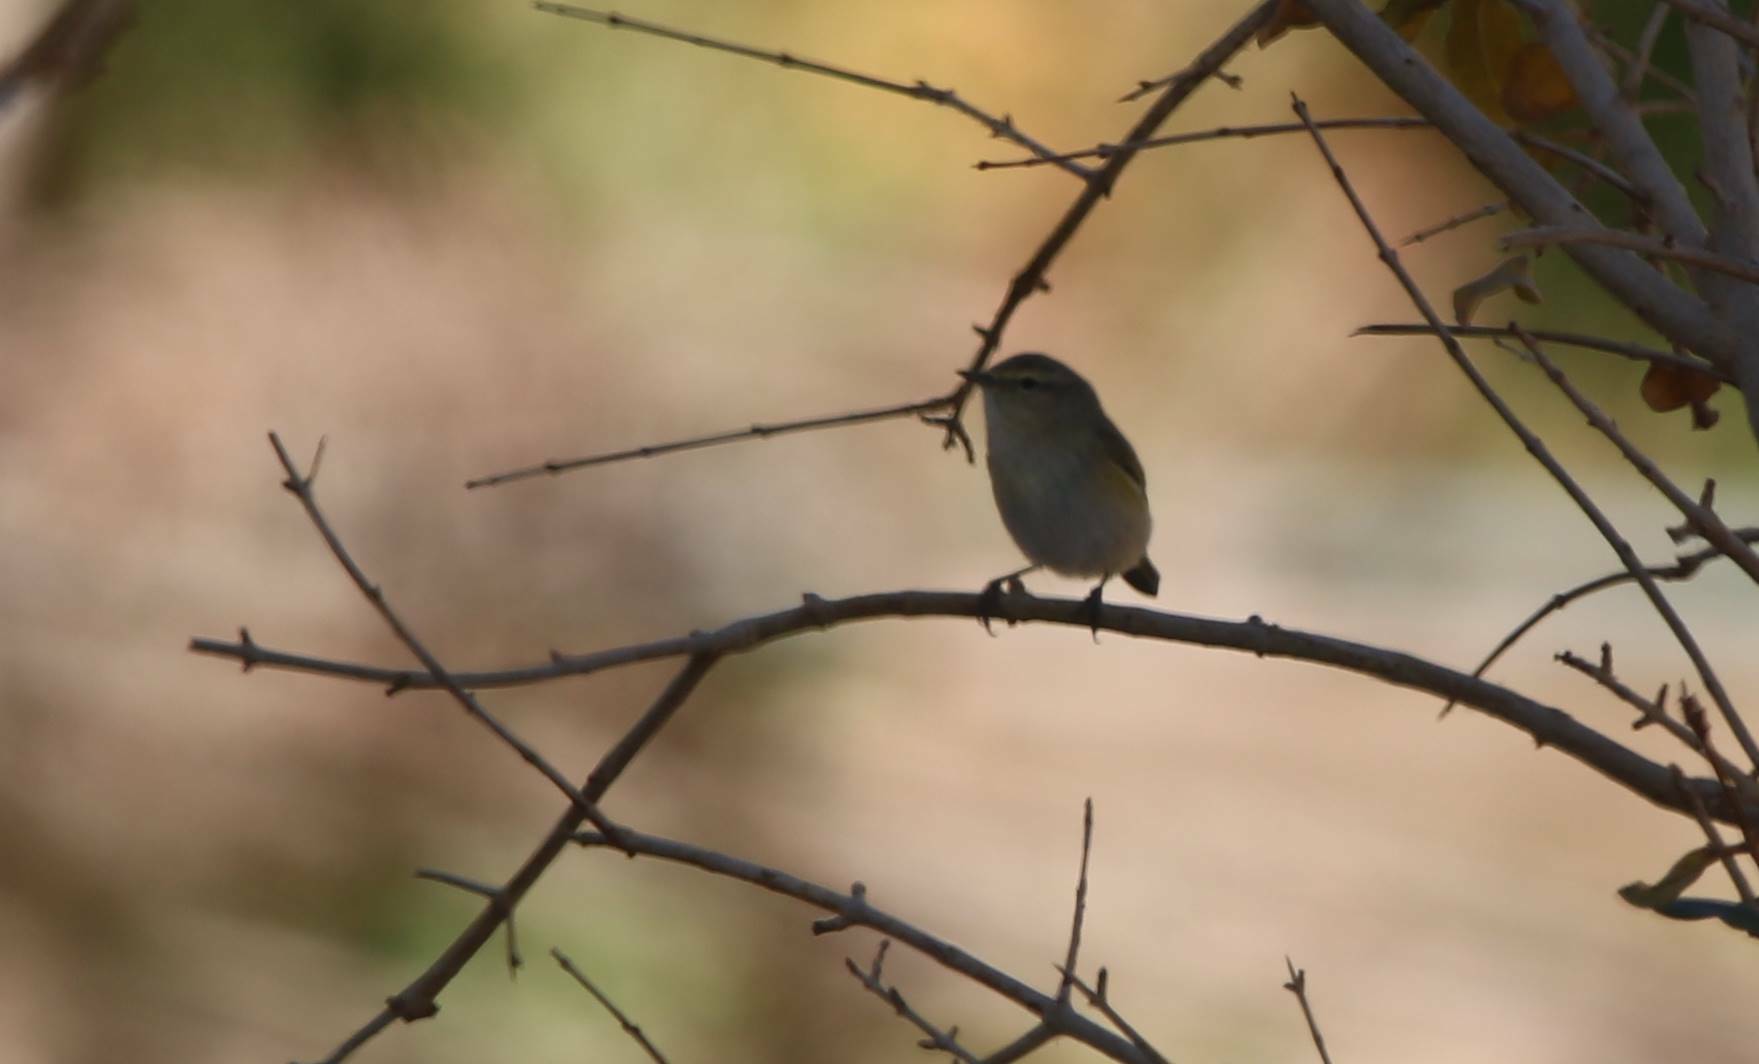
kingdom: Animalia
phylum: Chordata
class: Aves
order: Passeriformes
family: Phylloscopidae
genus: Phylloscopus
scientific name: Phylloscopus collybita
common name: Common chiffchaff
